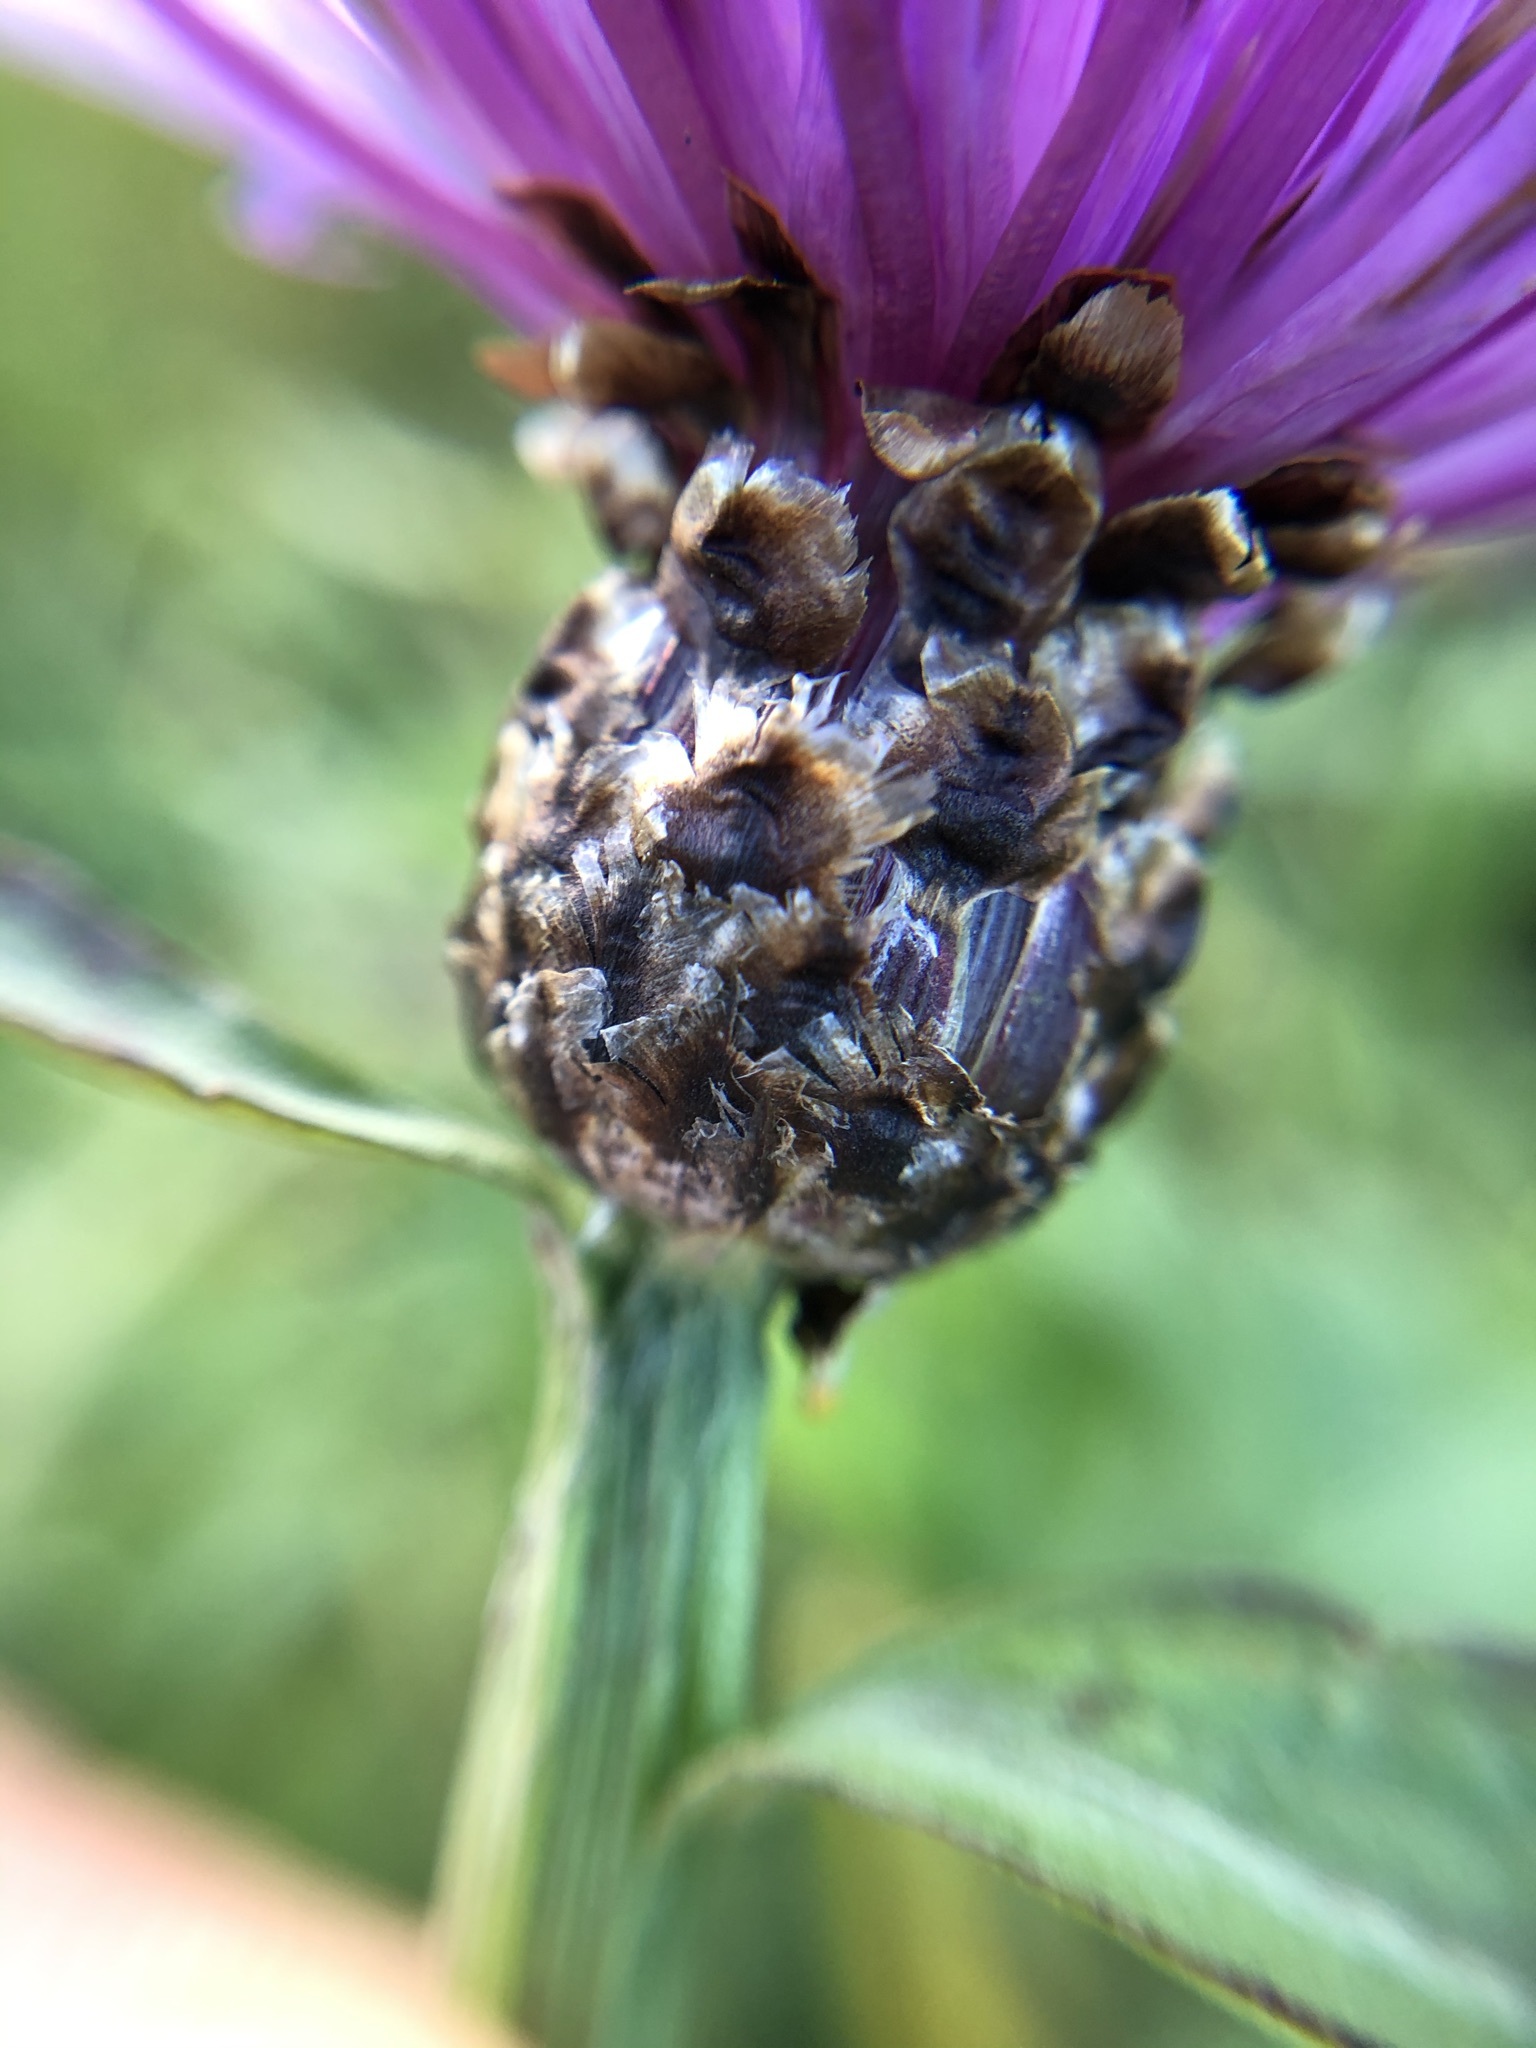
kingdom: Plantae
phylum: Tracheophyta
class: Magnoliopsida
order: Asterales
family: Asteraceae
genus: Centaurea
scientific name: Centaurea jacea
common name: Brown knapweed
